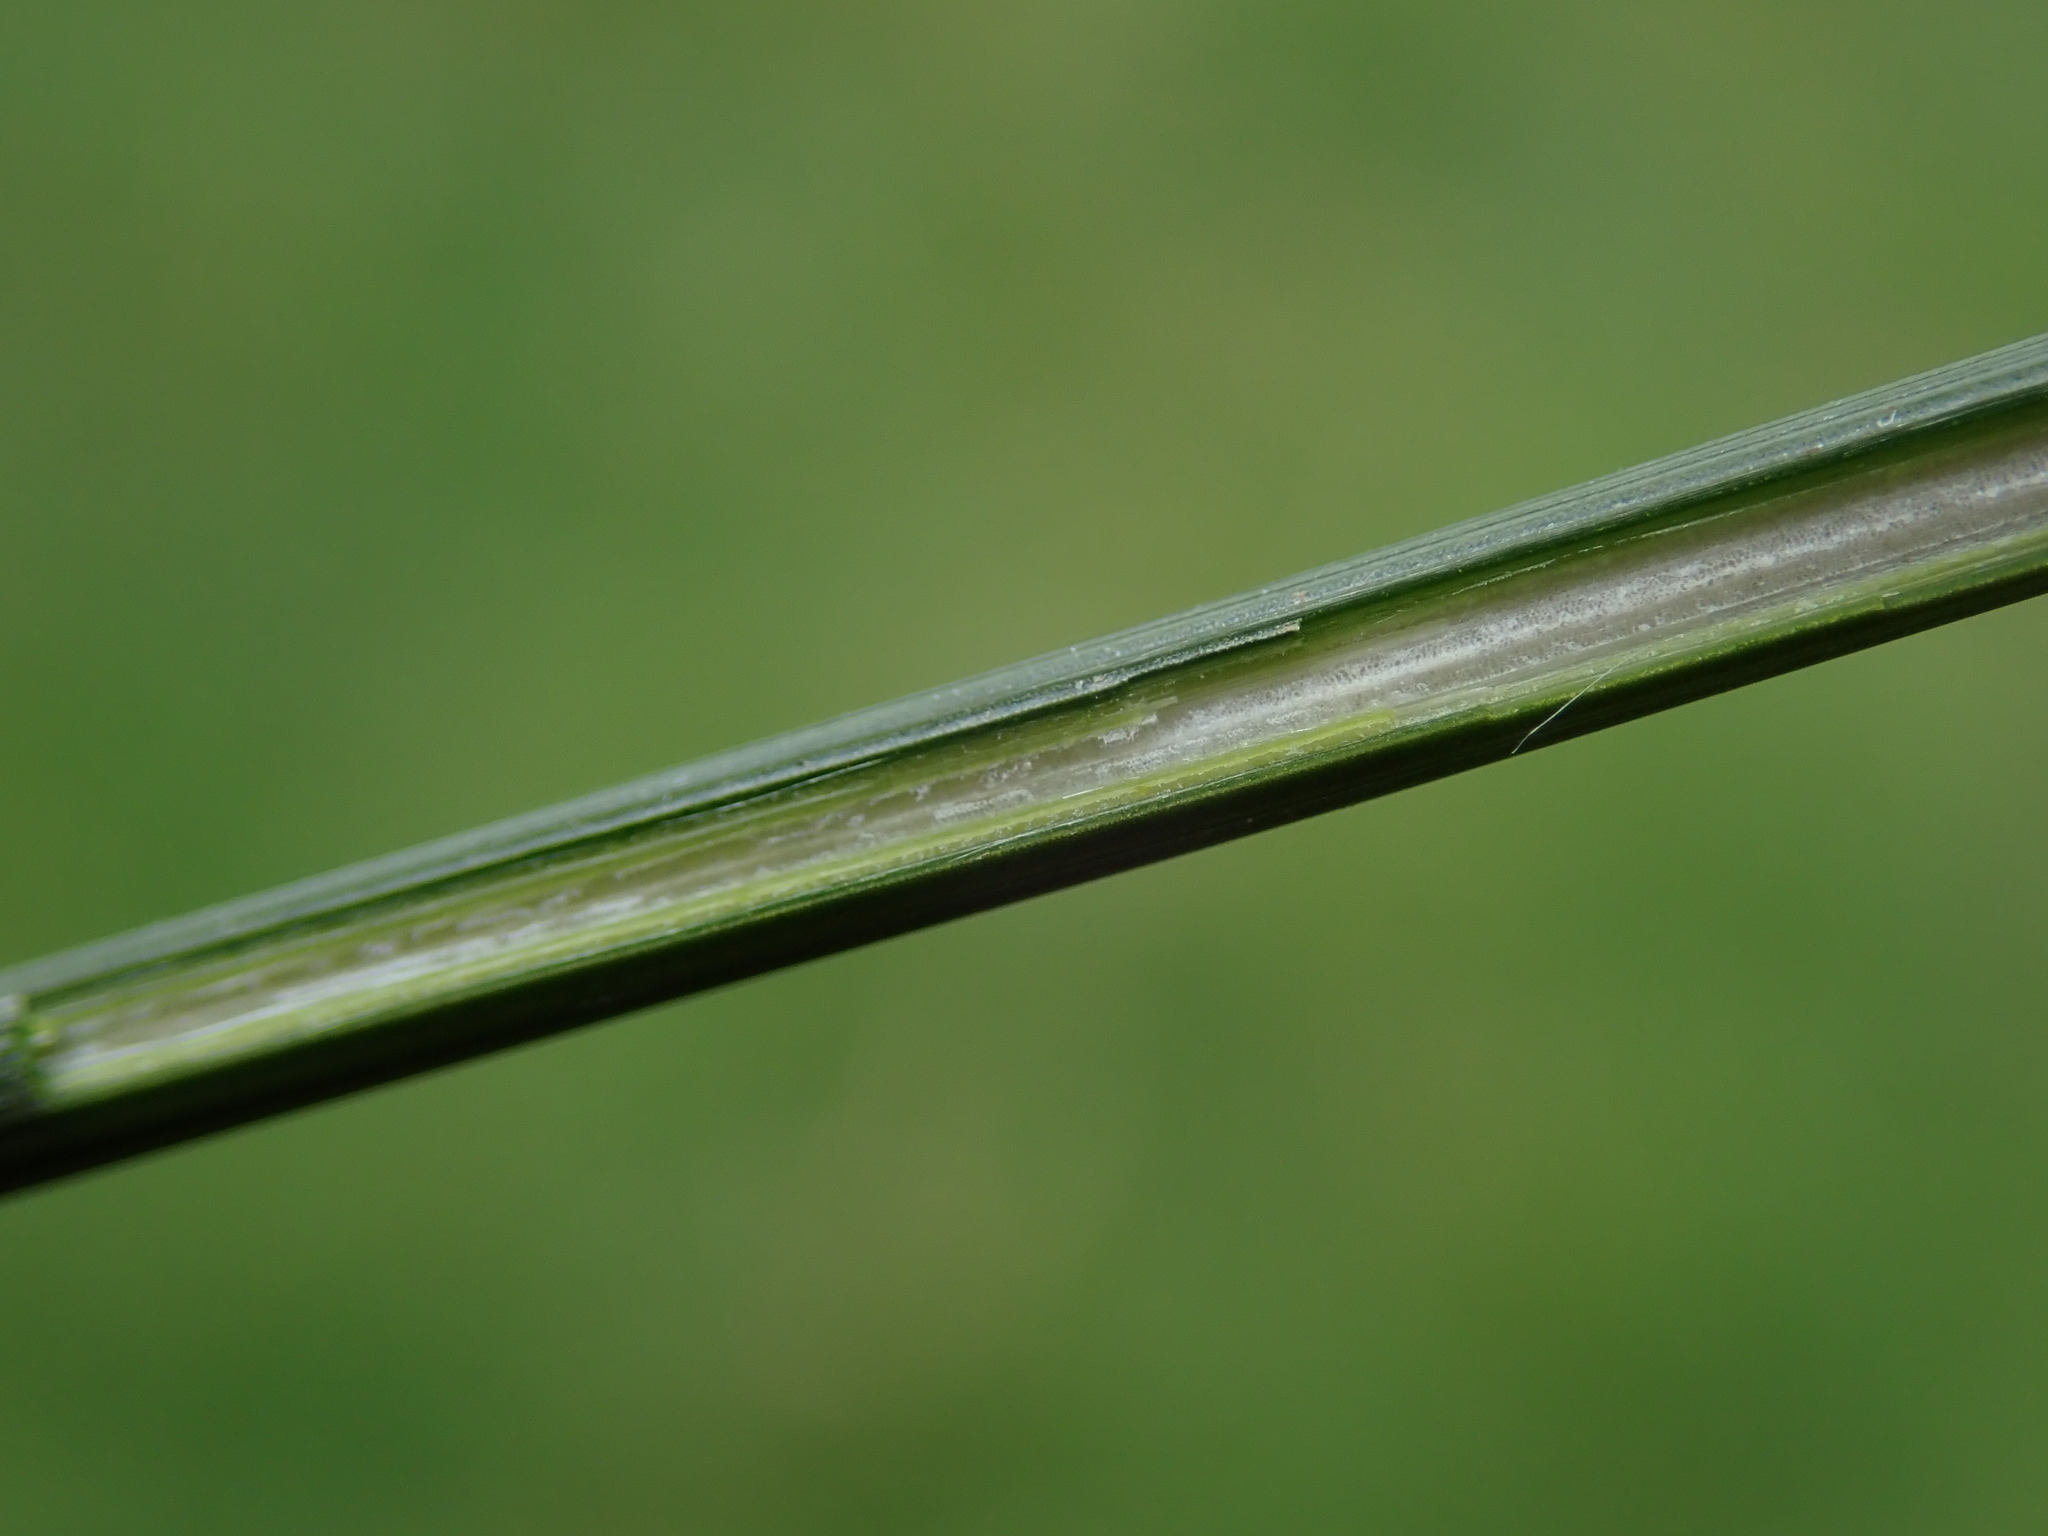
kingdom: Plantae
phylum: Tracheophyta
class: Liliopsida
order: Poales
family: Juncaceae
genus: Juncus
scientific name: Juncus effusus
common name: Soft rush
